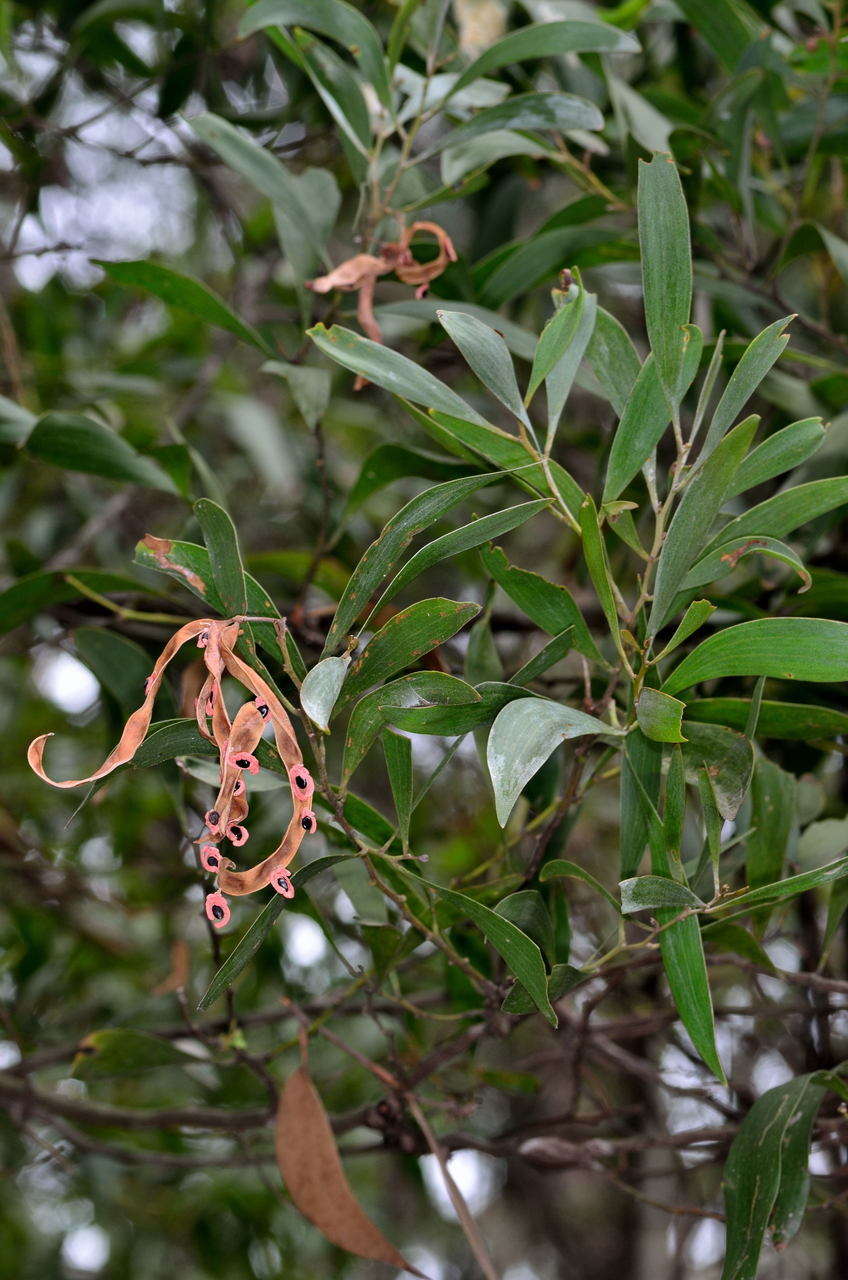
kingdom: Plantae
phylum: Tracheophyta
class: Magnoliopsida
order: Fabales
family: Fabaceae
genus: Acacia
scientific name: Acacia melanoxylon
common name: Blackwood
